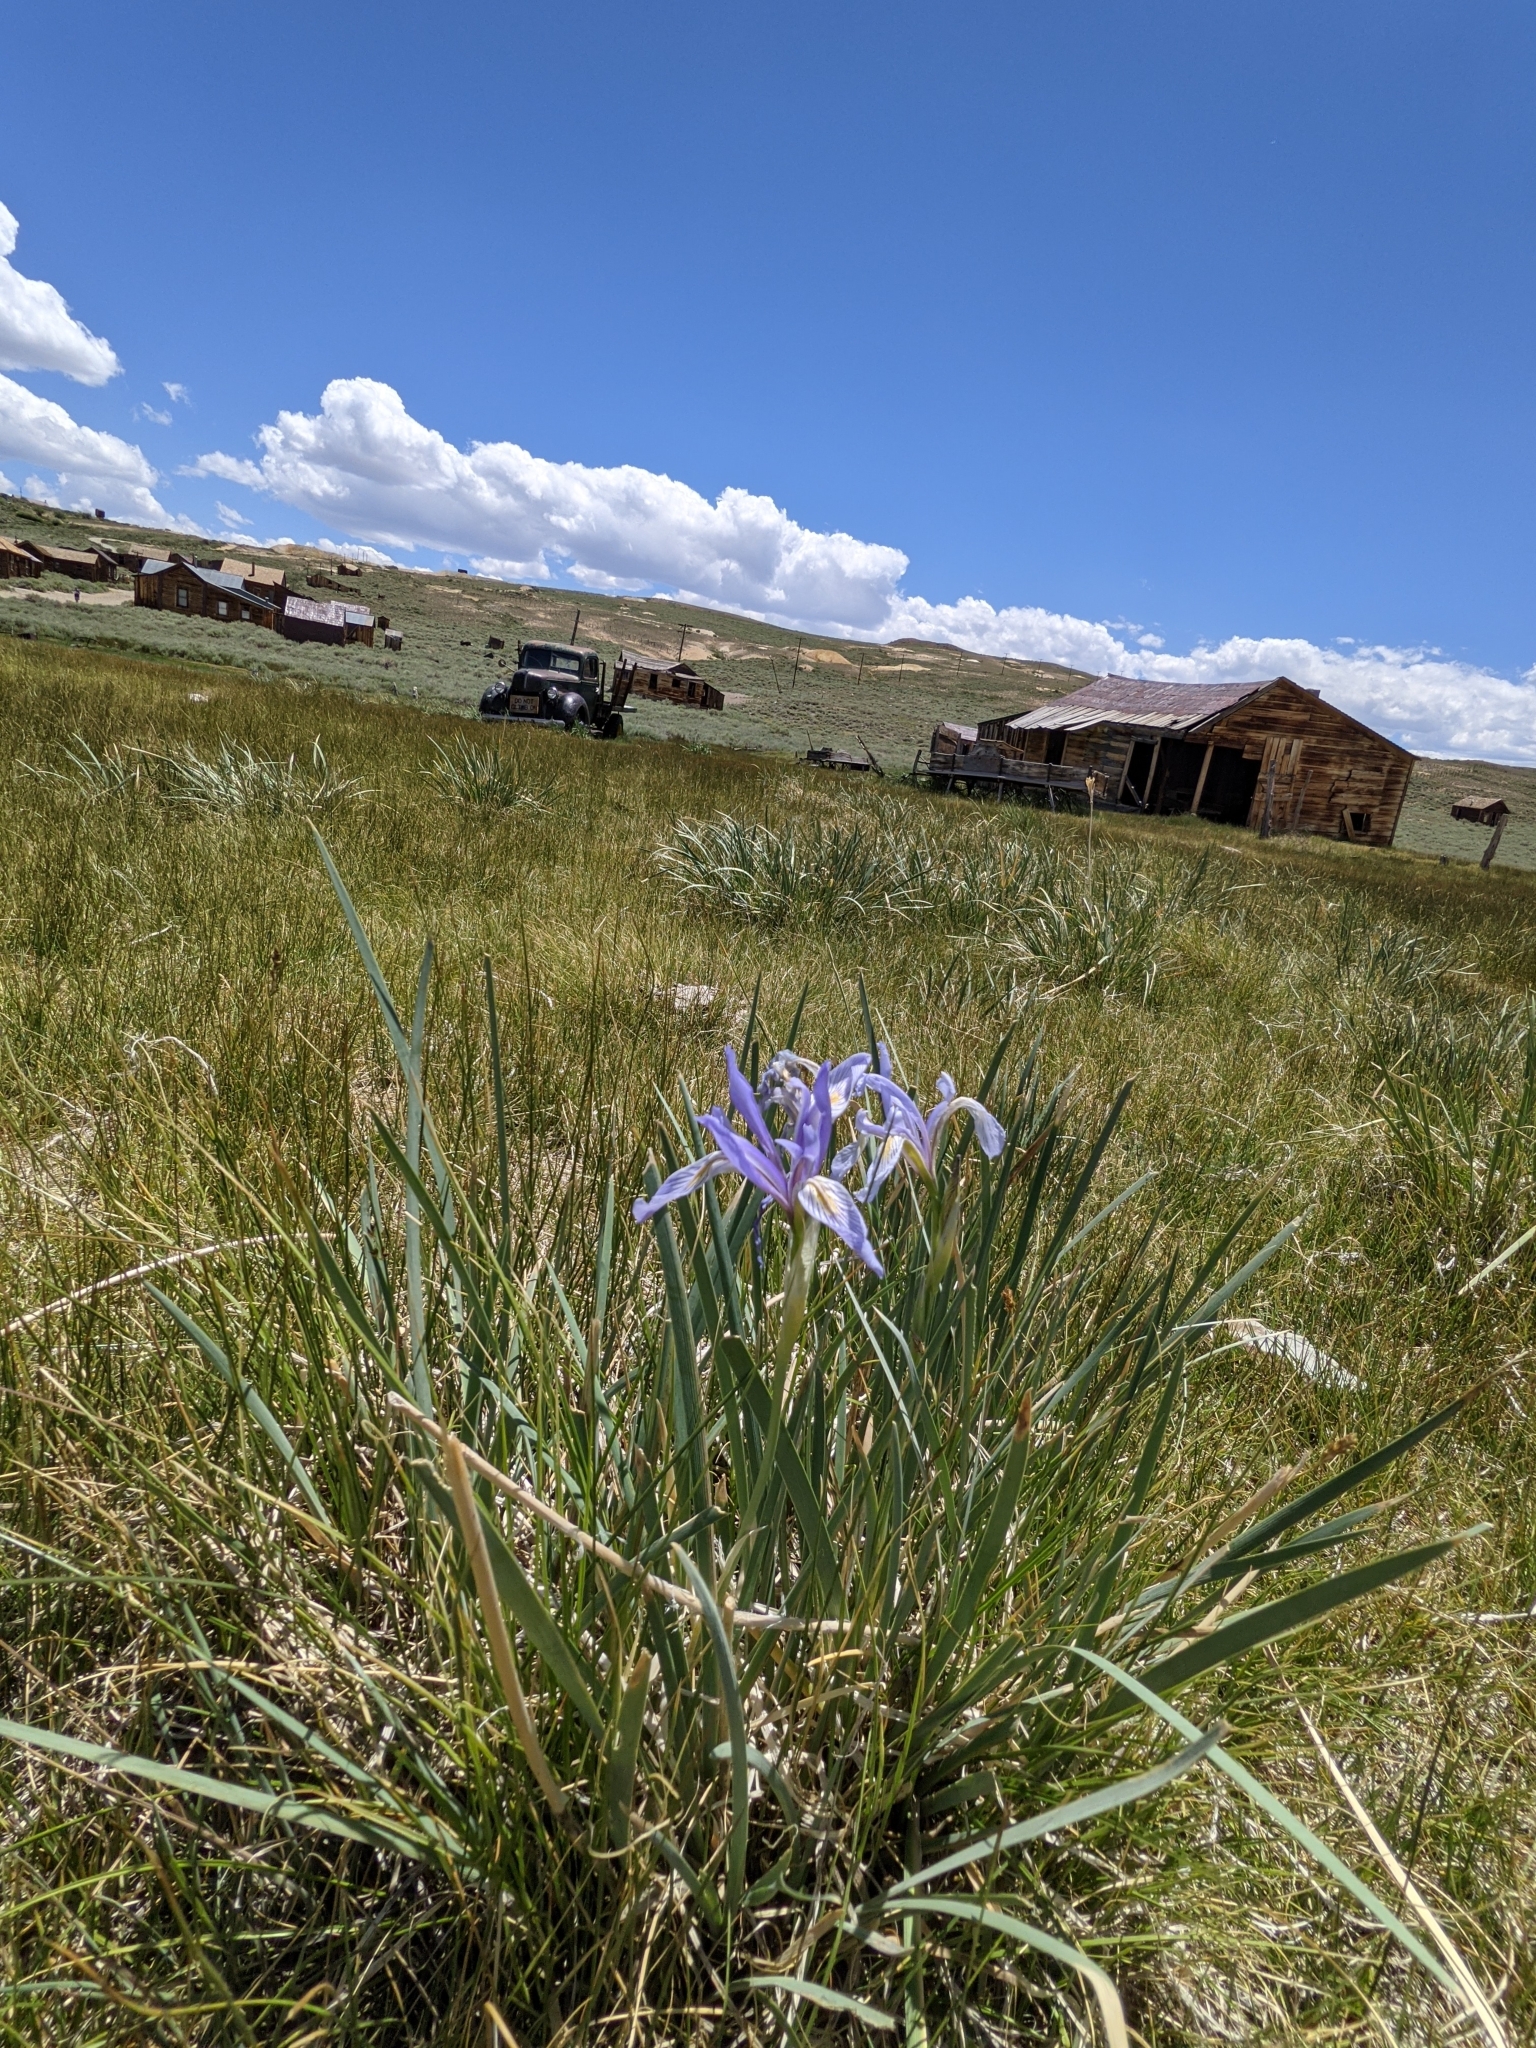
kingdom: Plantae
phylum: Tracheophyta
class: Liliopsida
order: Asparagales
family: Iridaceae
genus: Iris
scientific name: Iris missouriensis
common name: Rocky mountain iris
